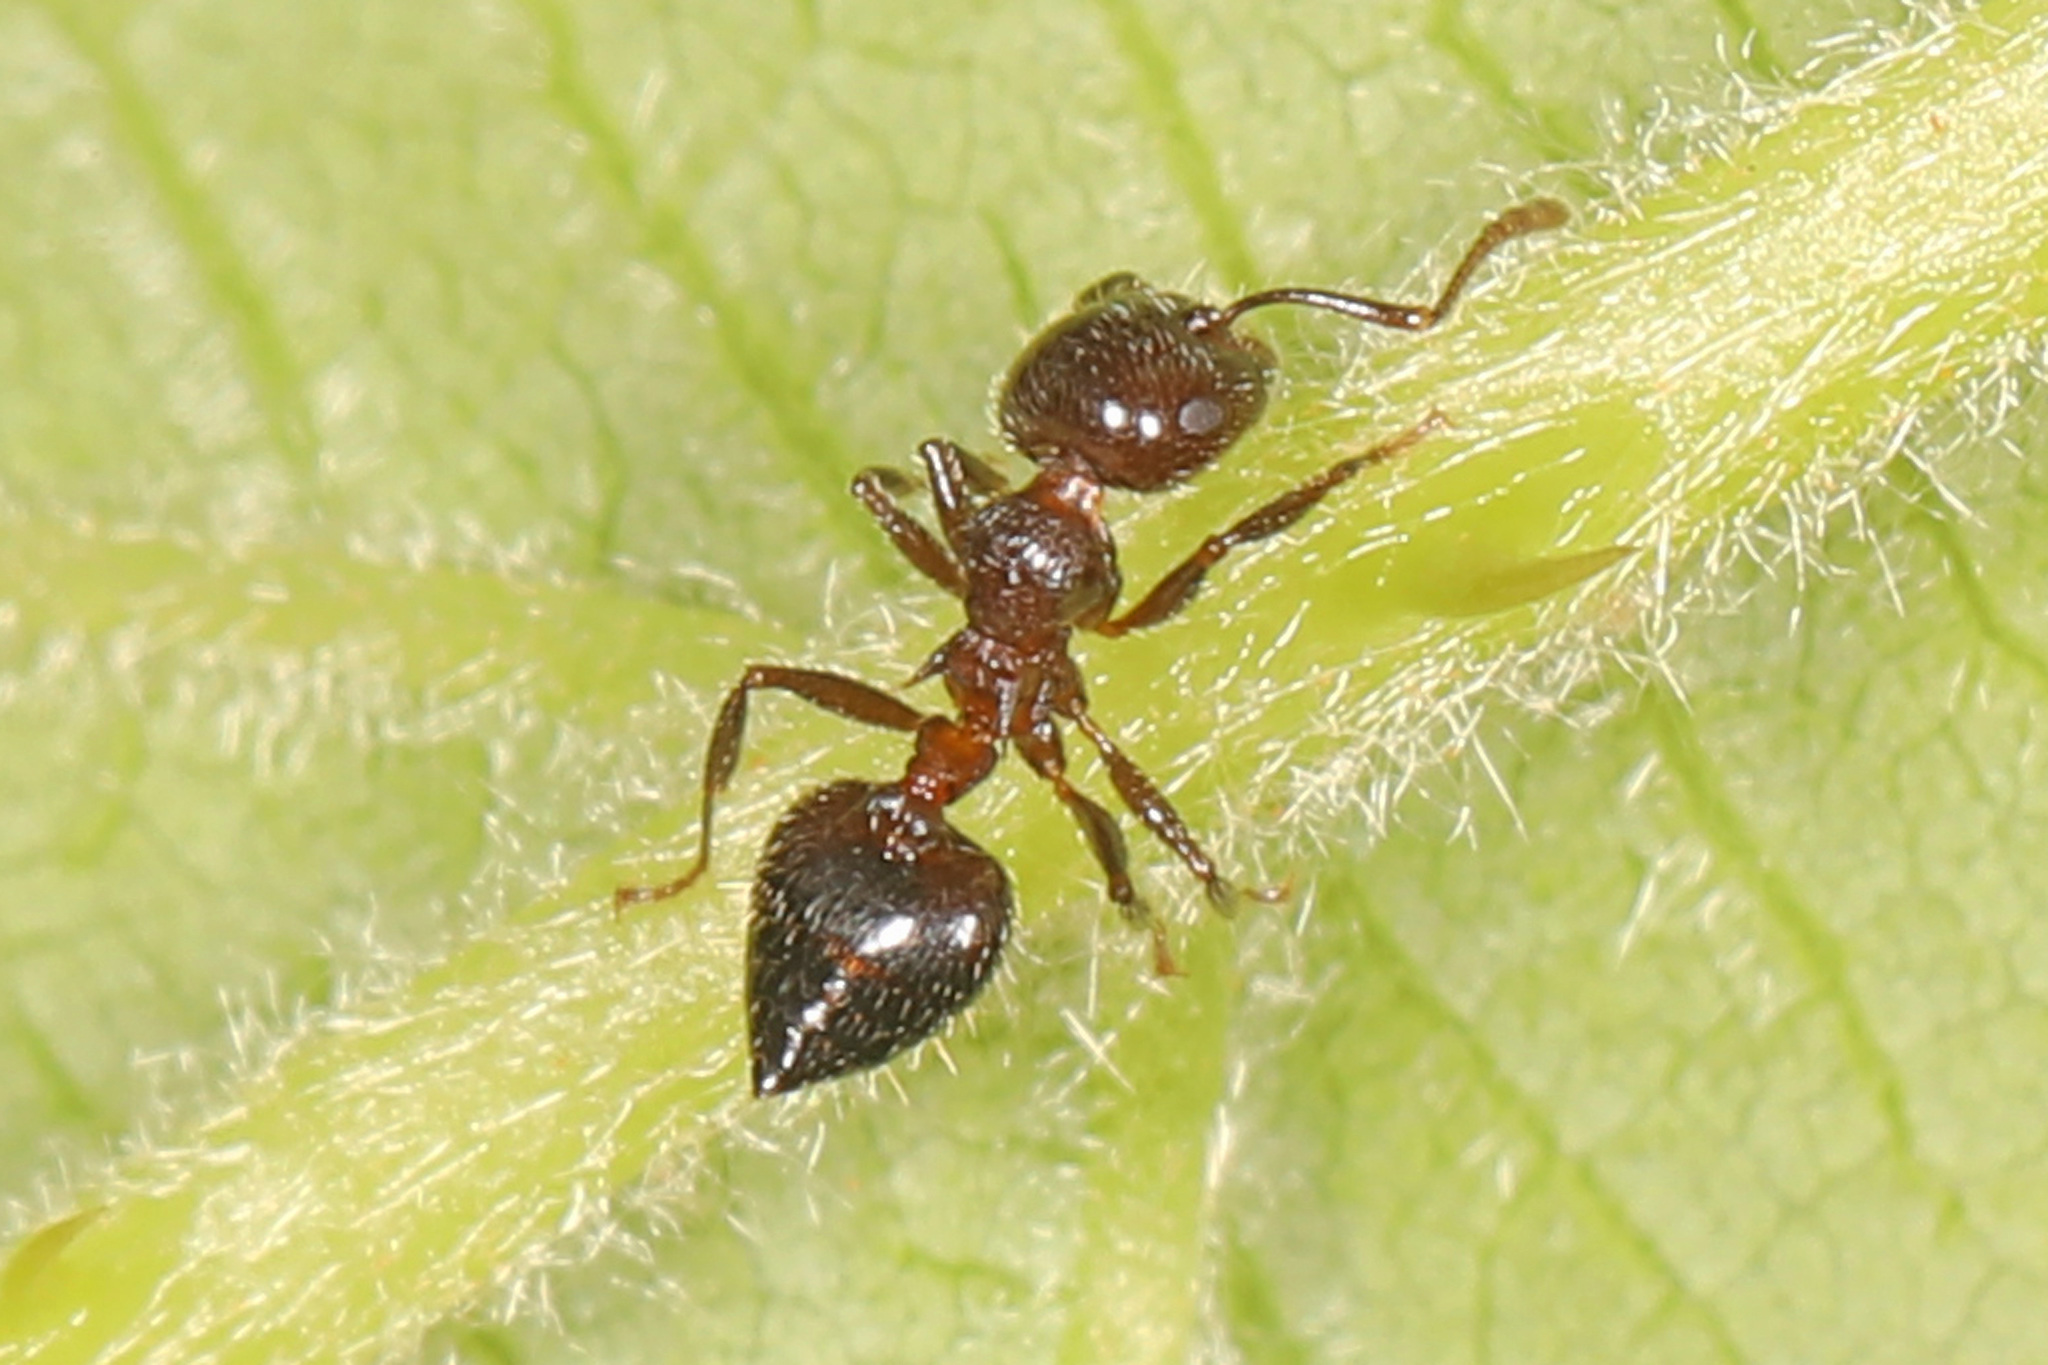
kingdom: Animalia
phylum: Arthropoda
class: Insecta
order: Hymenoptera
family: Formicidae
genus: Crematogaster
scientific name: Crematogaster lineolata
